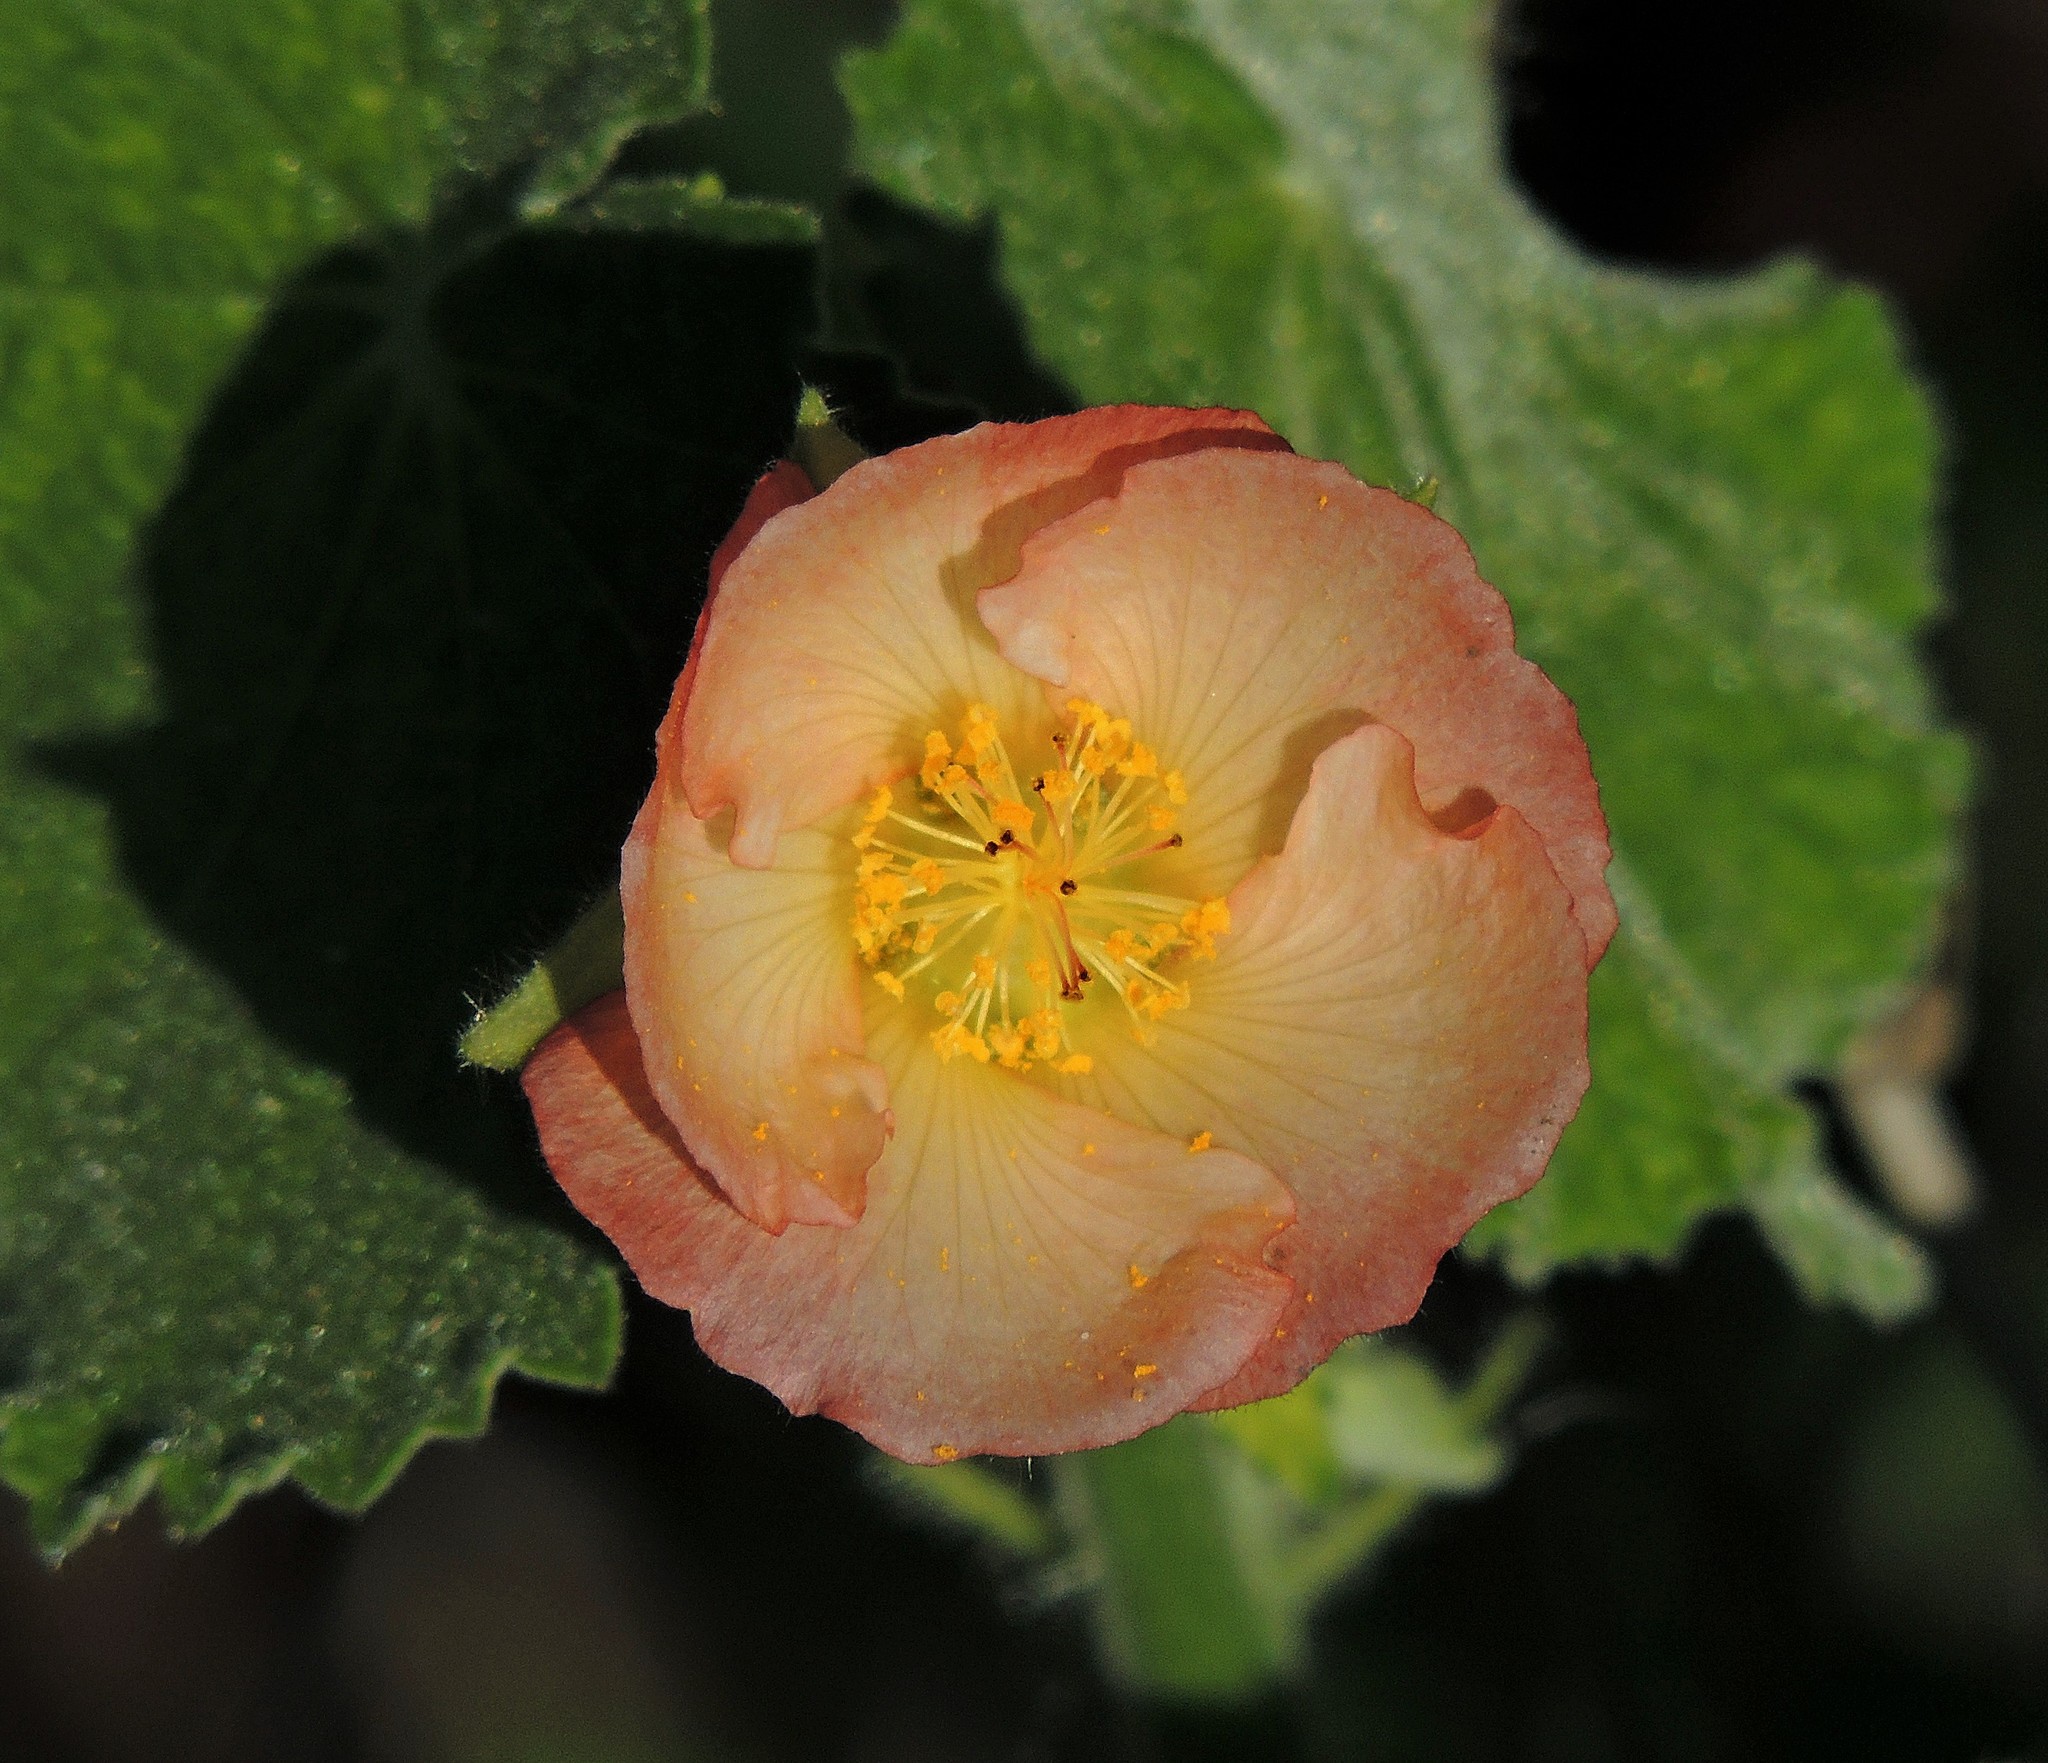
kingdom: Plantae
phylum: Tracheophyta
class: Magnoliopsida
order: Malvales
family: Malvaceae
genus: Callianthe
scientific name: Callianthe pauciflora
